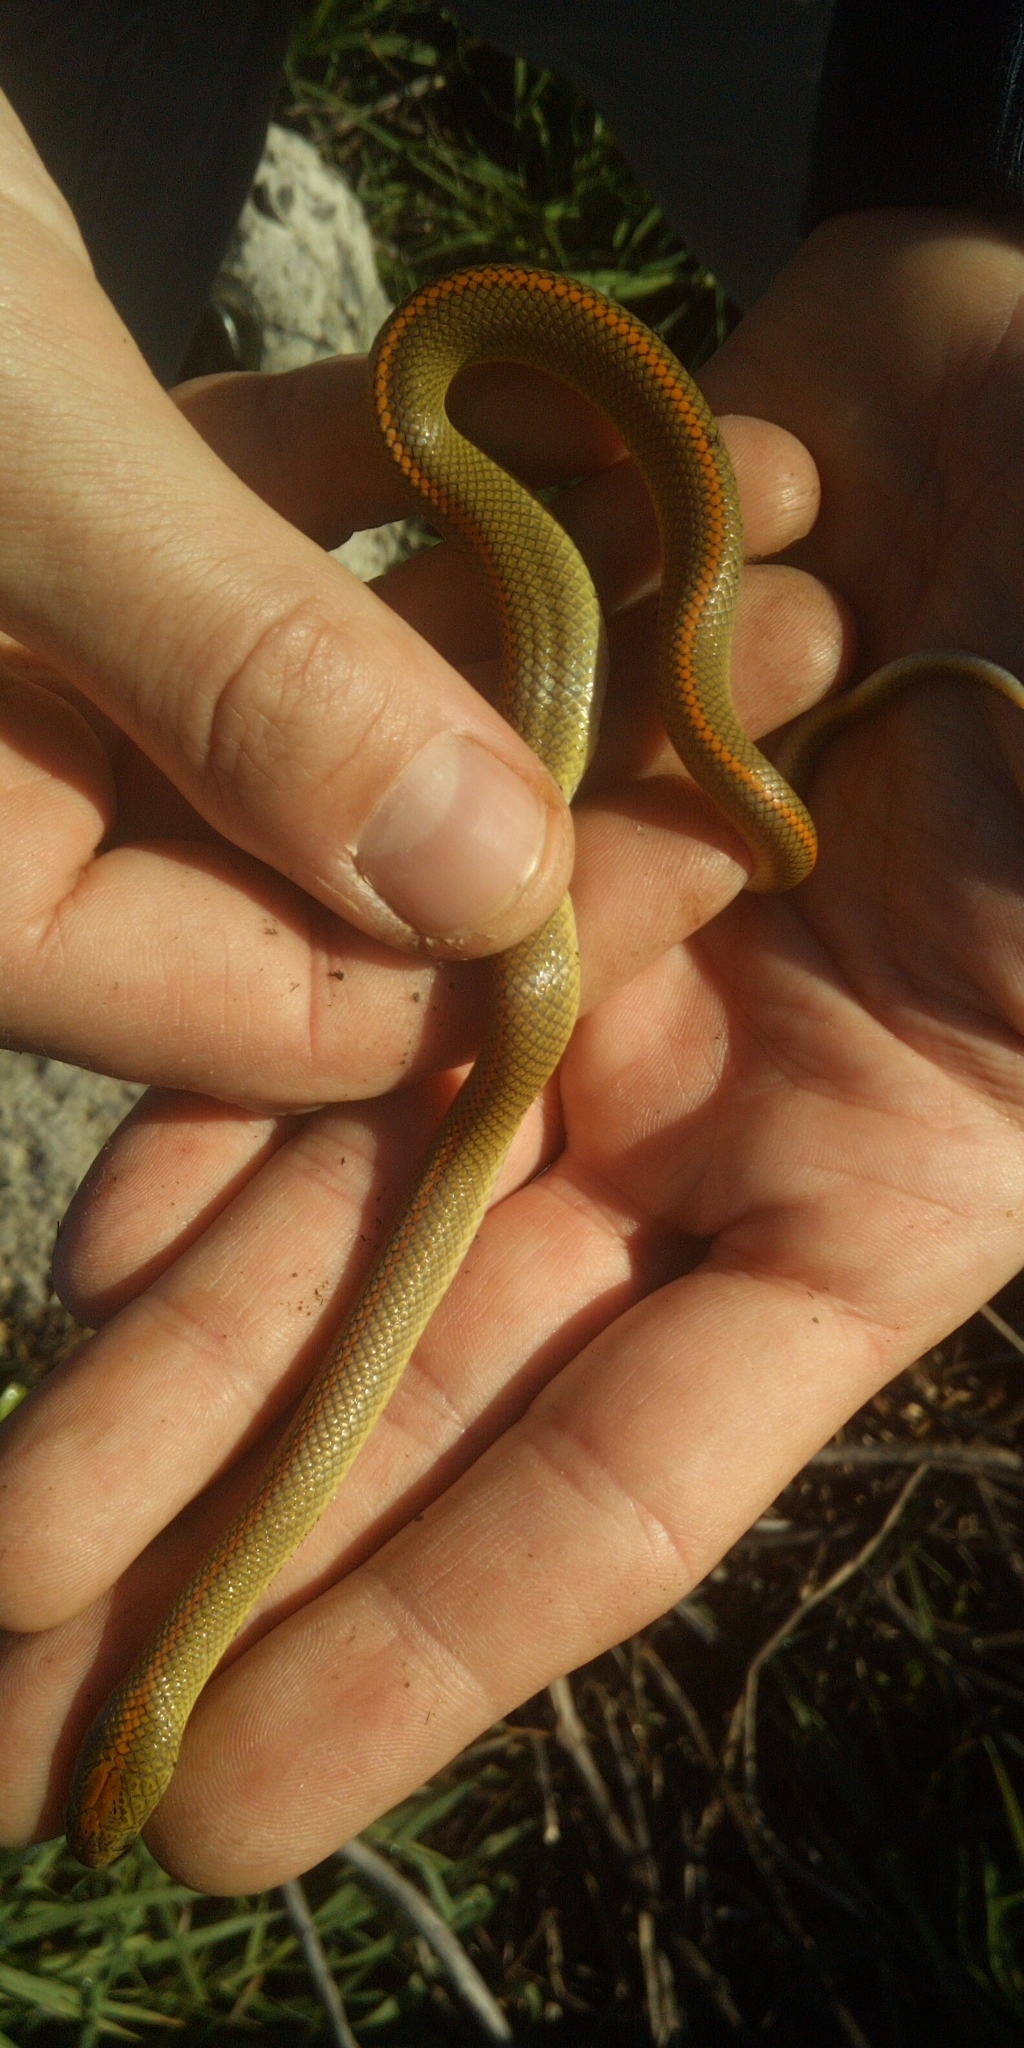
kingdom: Animalia
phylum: Chordata
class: Squamata
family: Lamprophiidae
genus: Lamprophis
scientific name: Lamprophis aurora
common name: Aurora house snake
